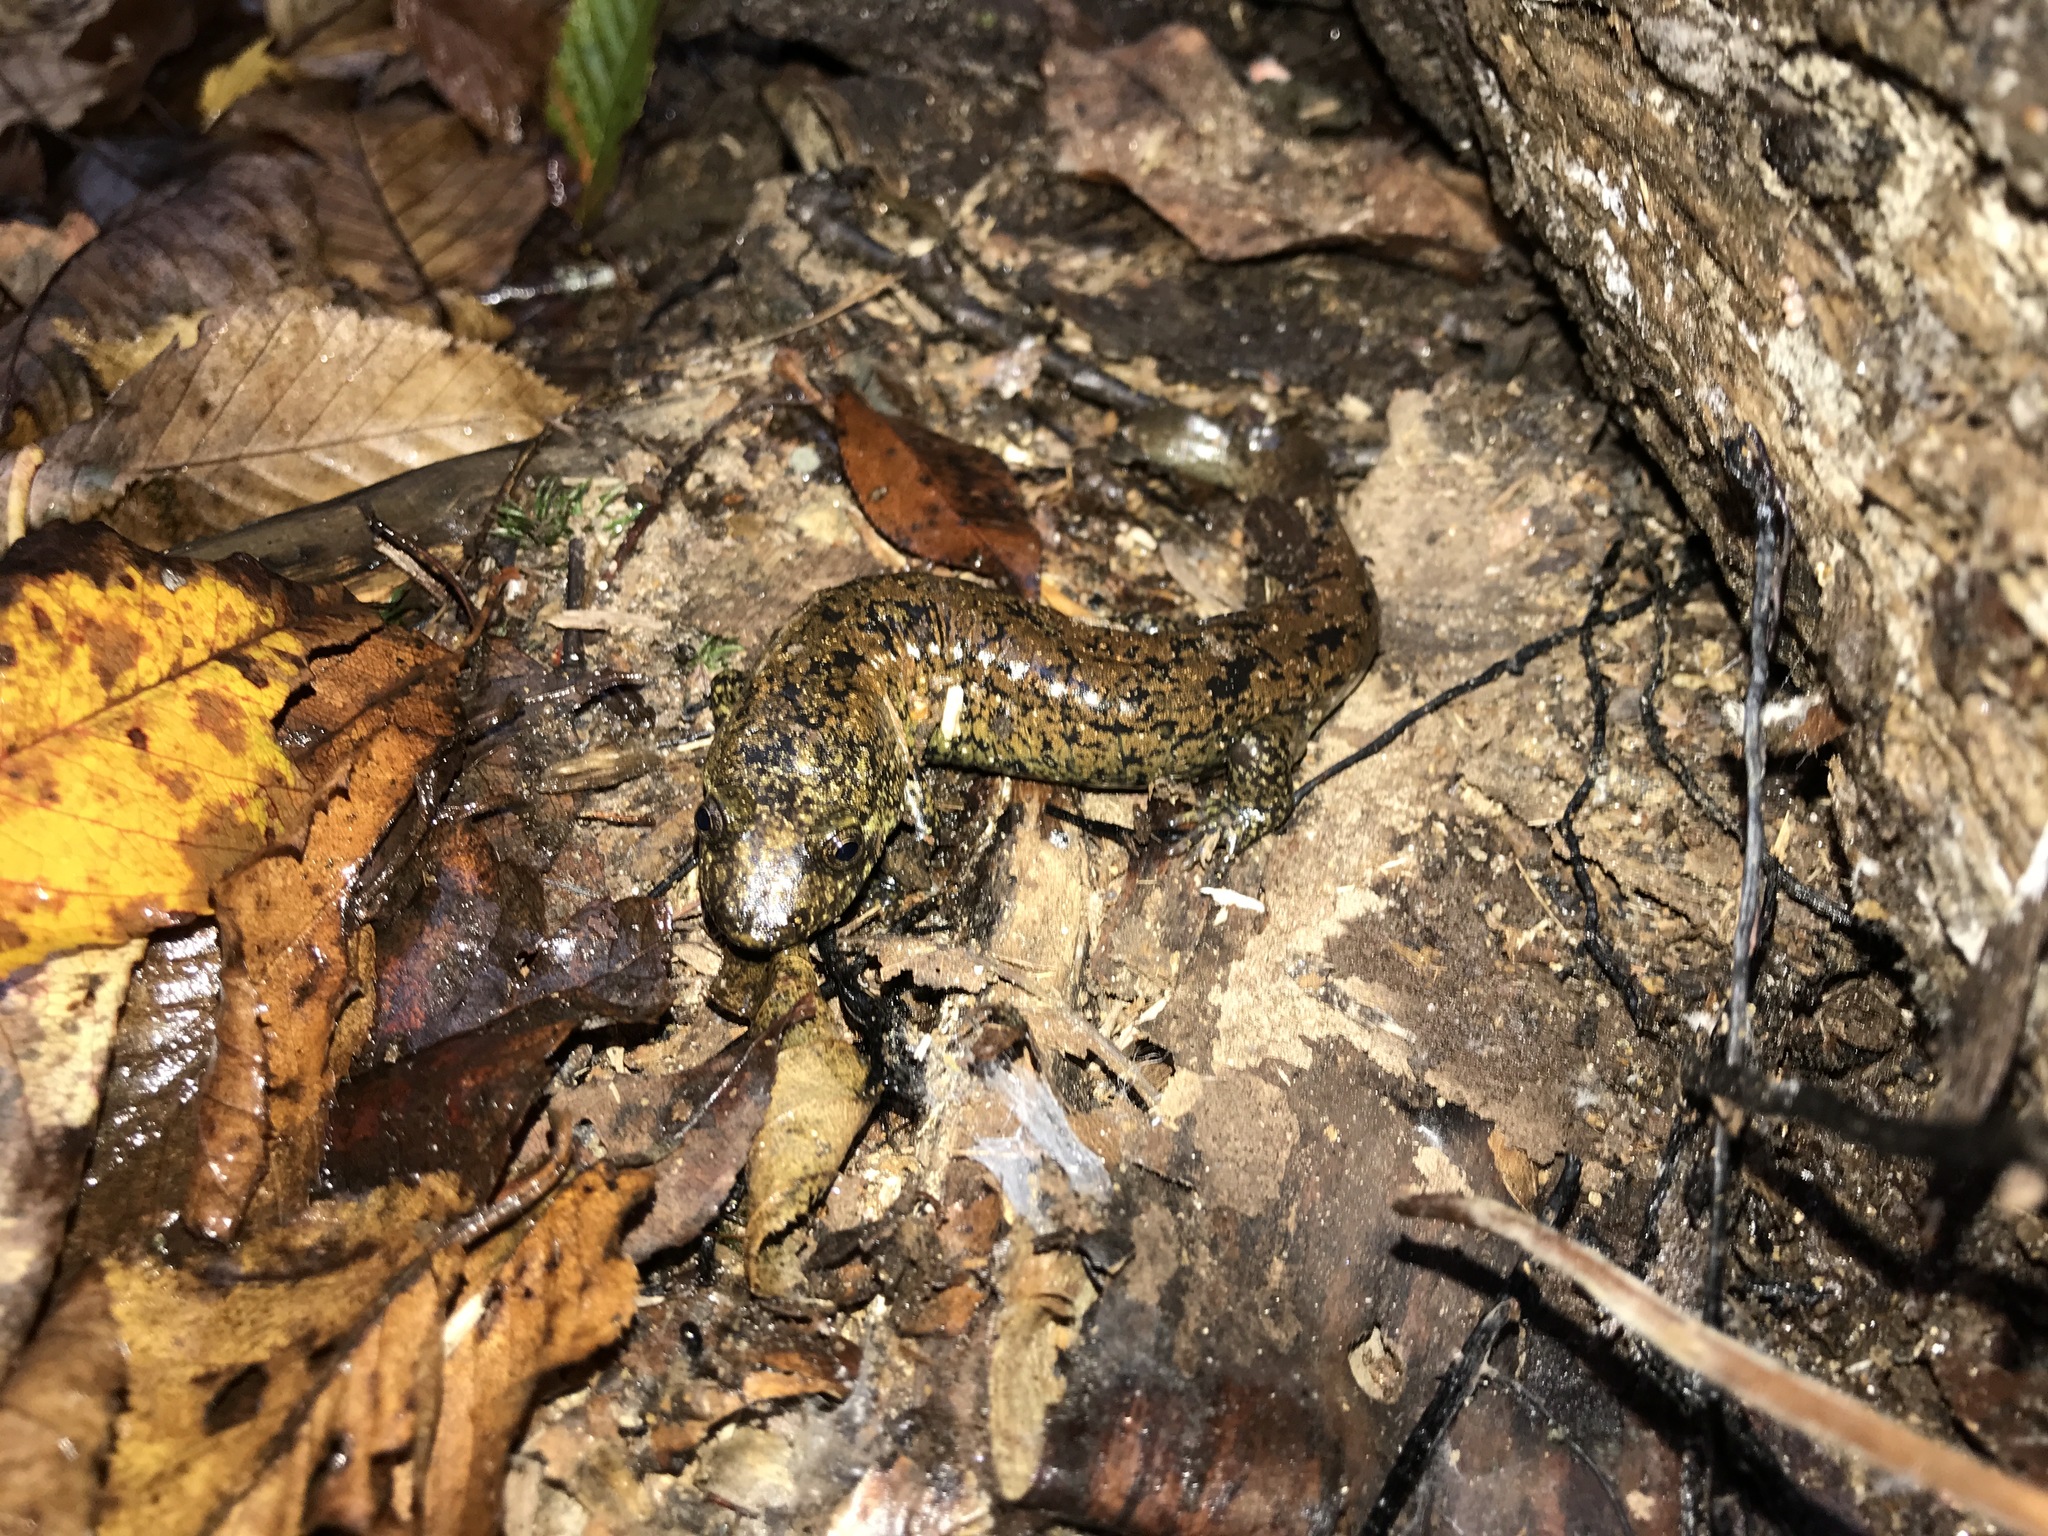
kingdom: Animalia
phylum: Chordata
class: Amphibia
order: Caudata
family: Plethodontidae
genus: Desmognathus
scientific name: Desmognathus
